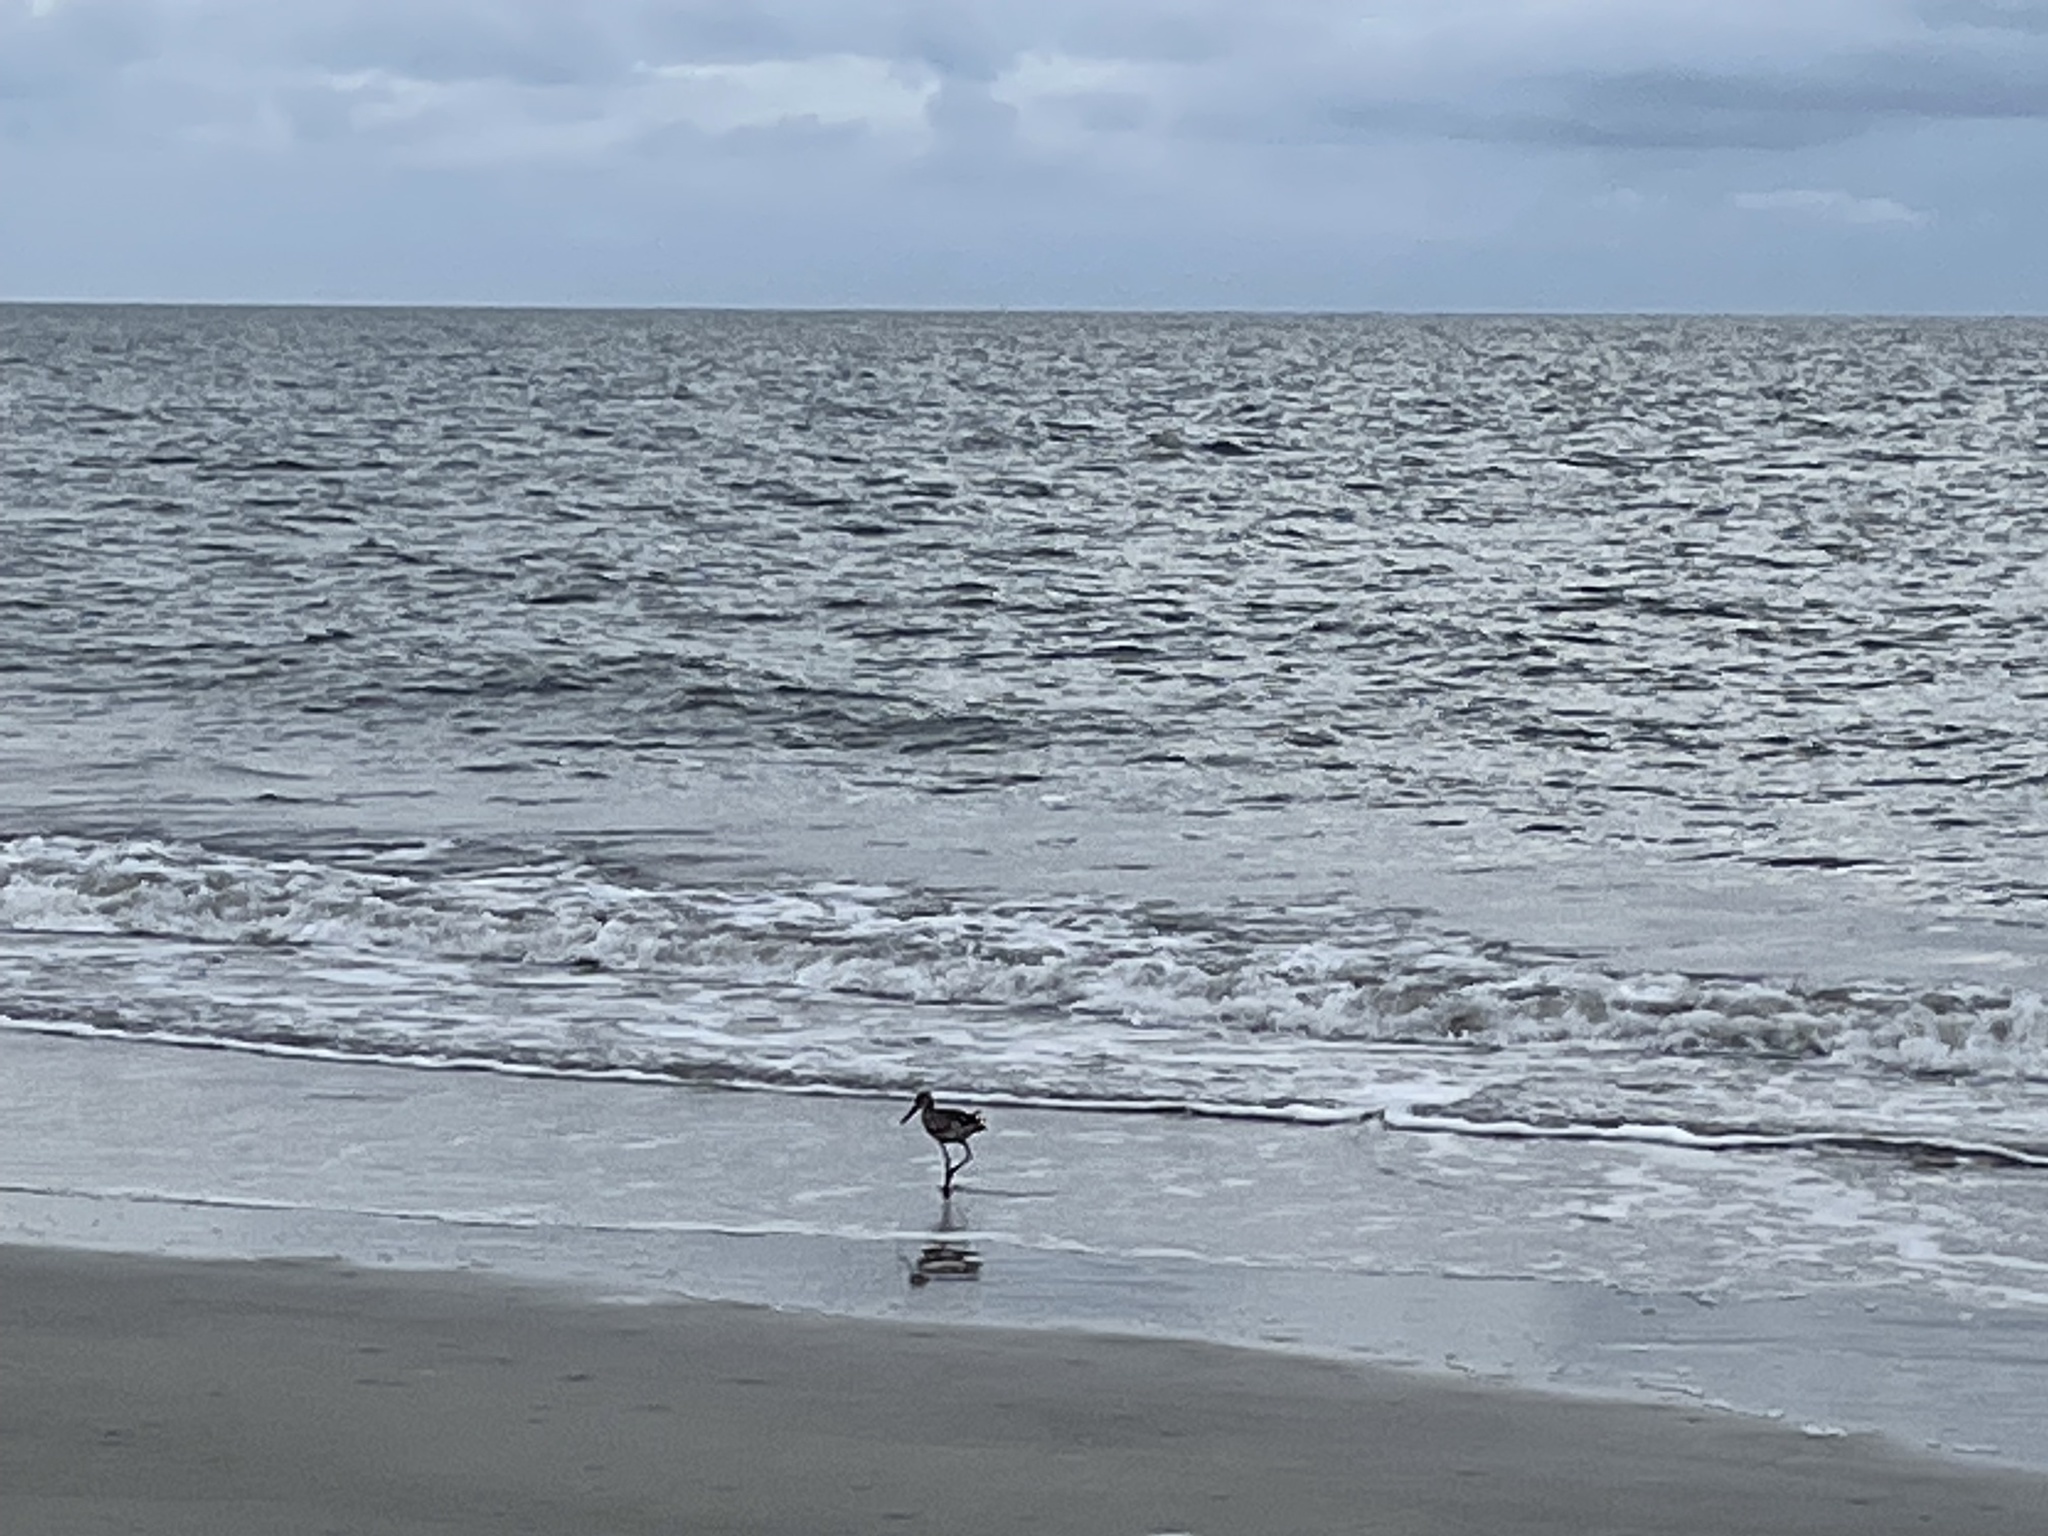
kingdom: Animalia
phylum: Chordata
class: Aves
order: Charadriiformes
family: Scolopacidae
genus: Tringa
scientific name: Tringa semipalmata
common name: Willet
